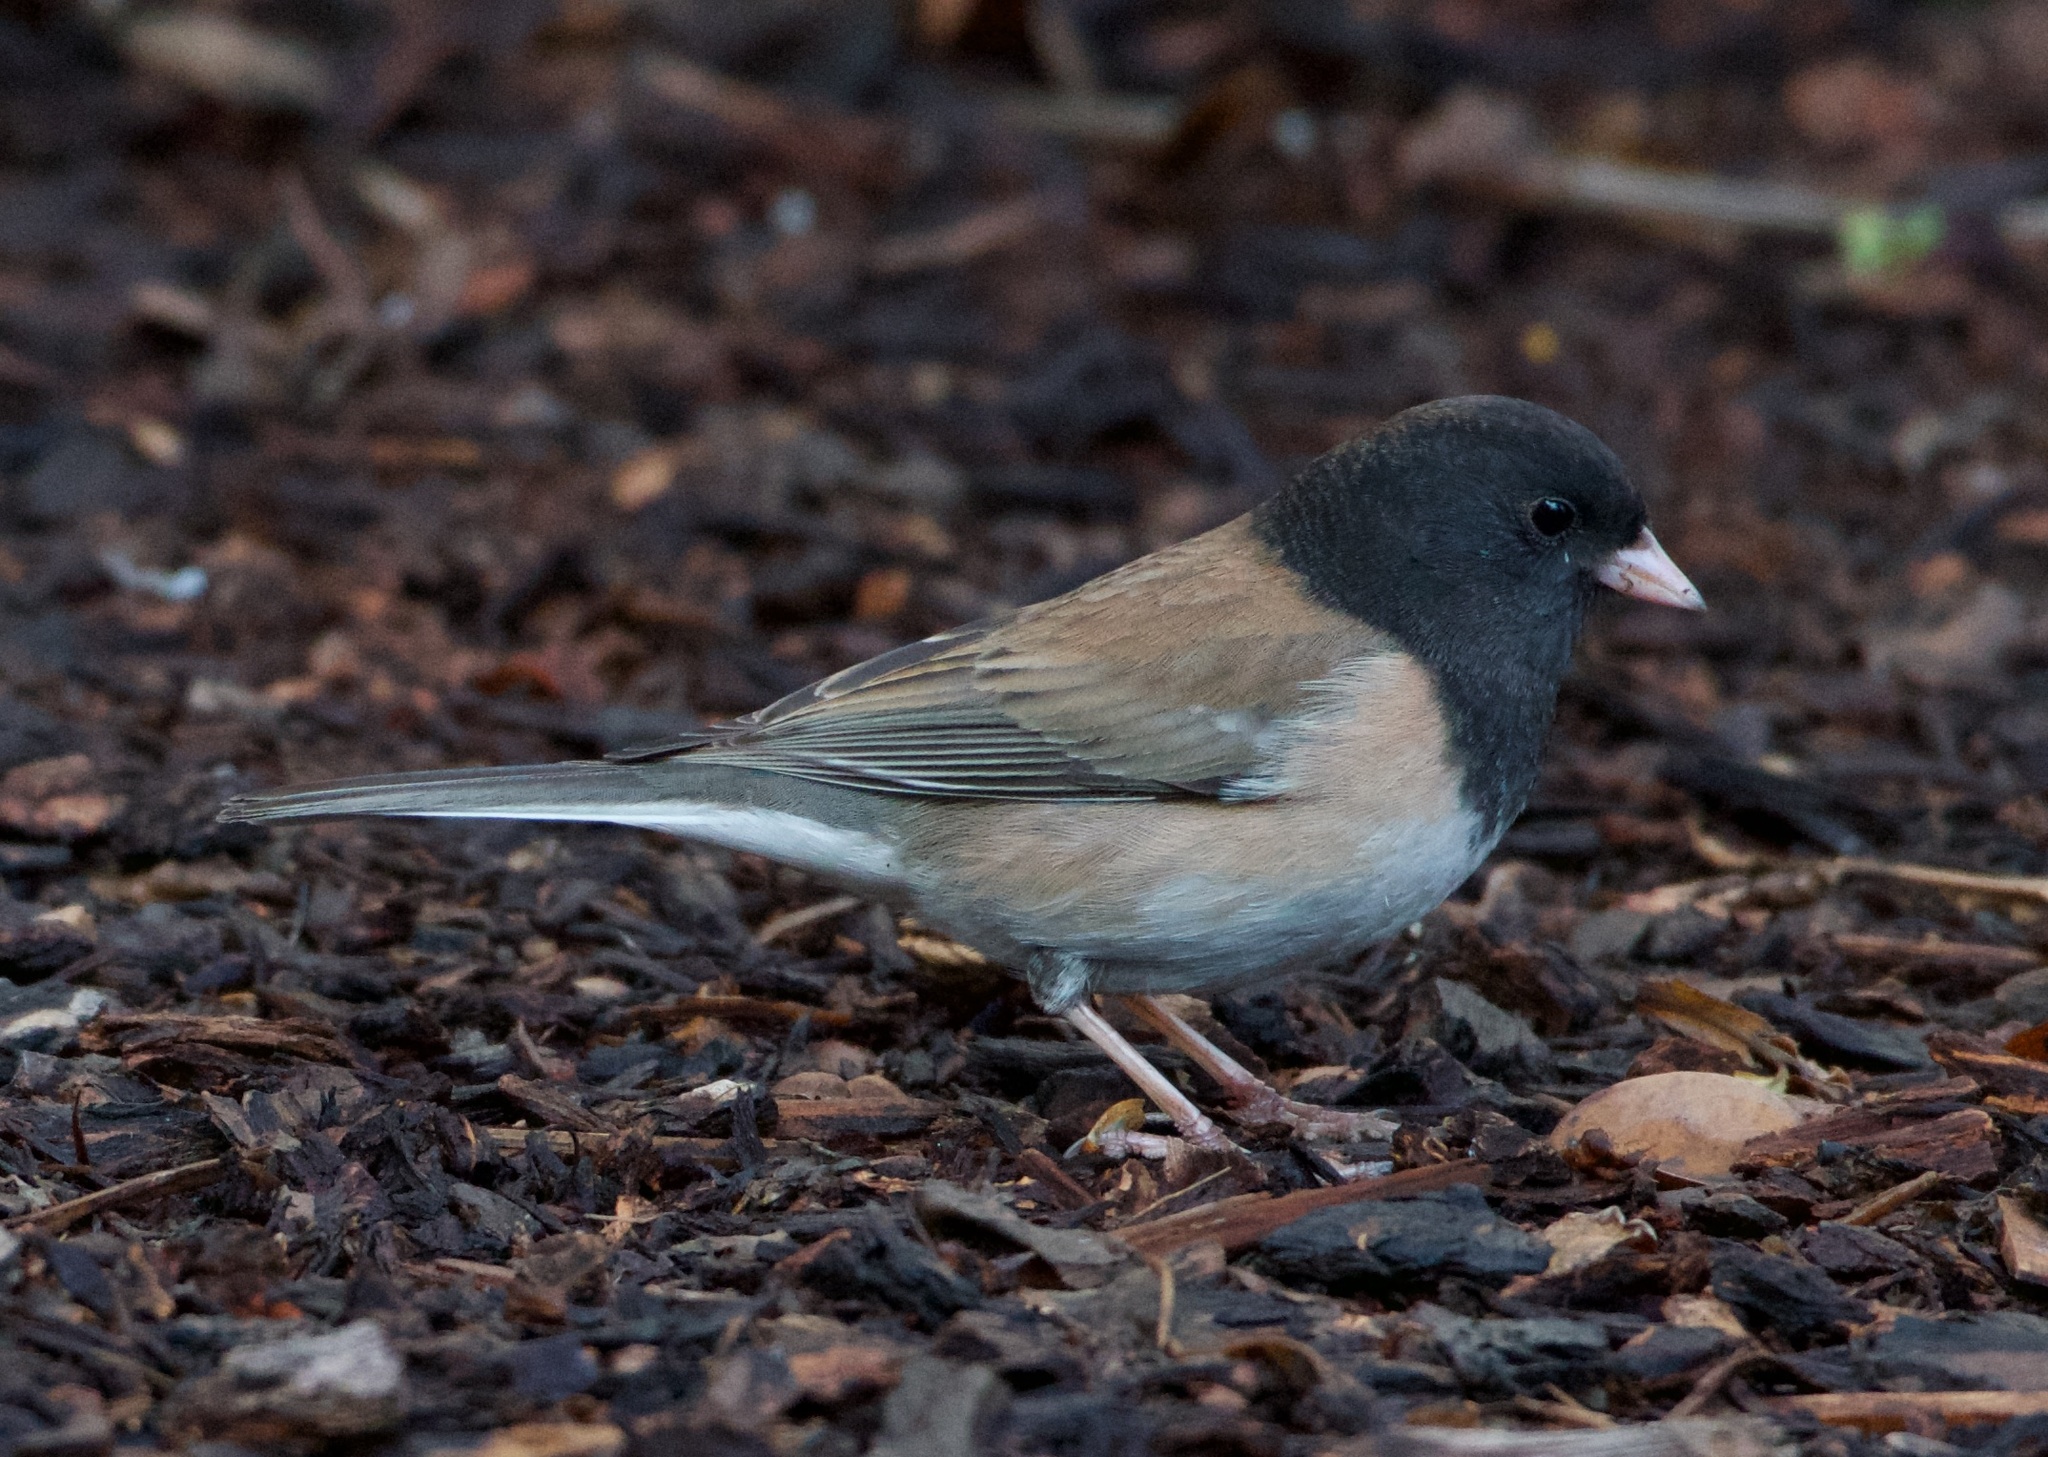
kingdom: Animalia
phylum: Chordata
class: Aves
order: Passeriformes
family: Passerellidae
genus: Junco
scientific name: Junco hyemalis
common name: Dark-eyed junco
